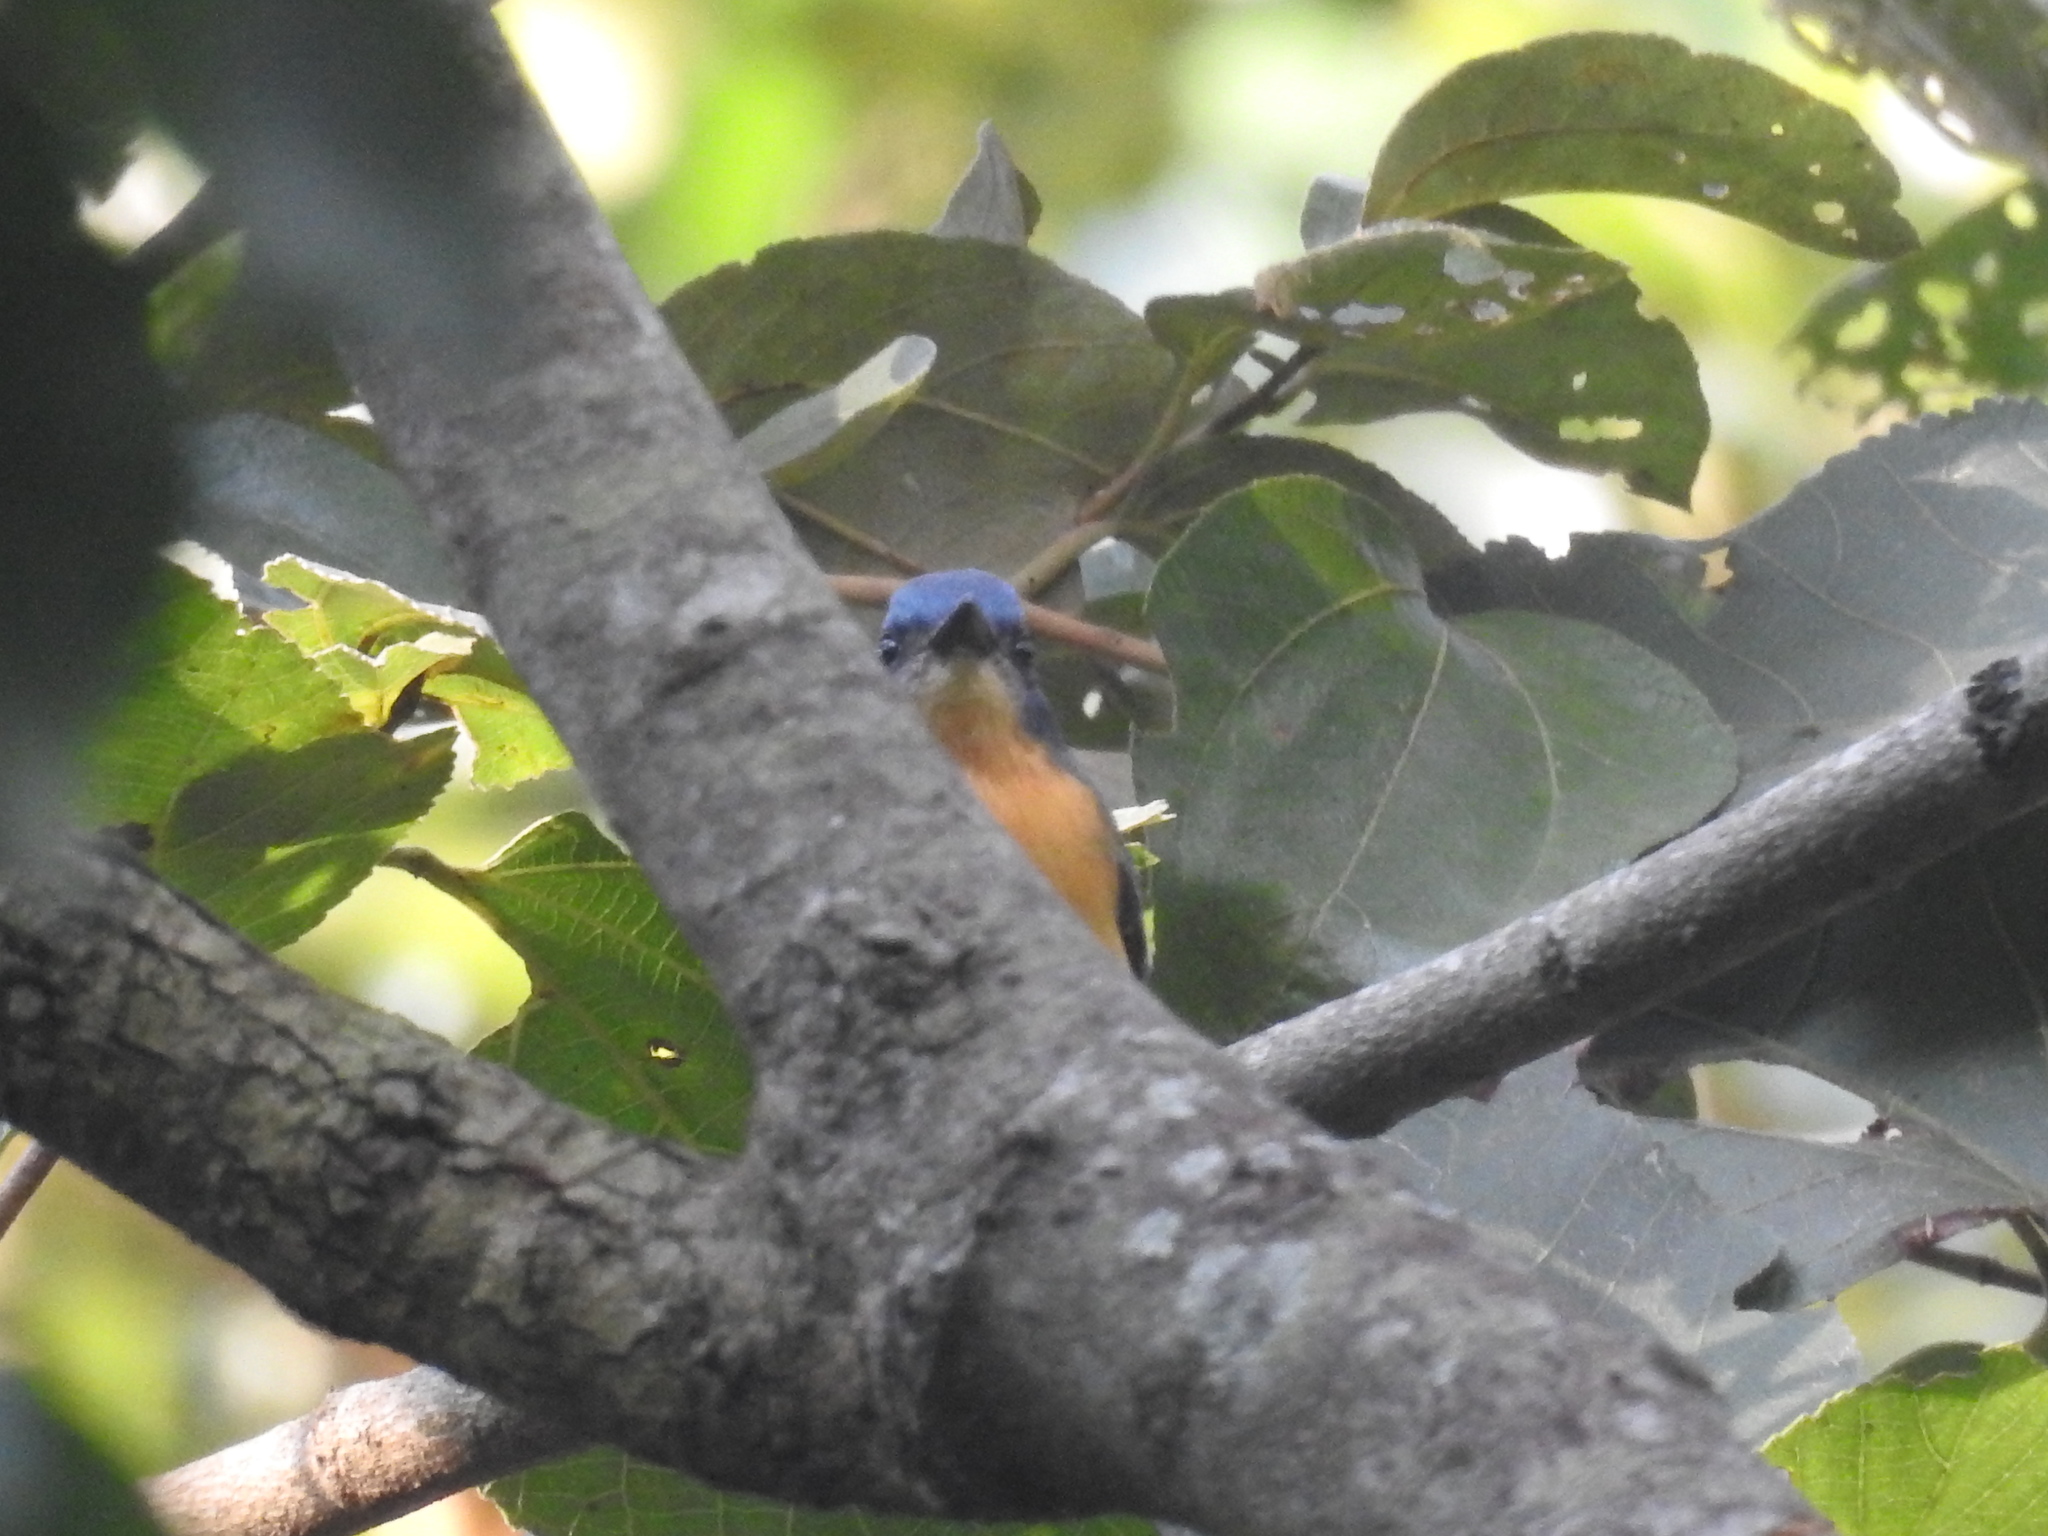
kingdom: Animalia
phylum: Chordata
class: Aves
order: Passeriformes
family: Muscicapidae
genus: Cyornis
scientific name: Cyornis tickelliae
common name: Tickell's blue flycatcher
